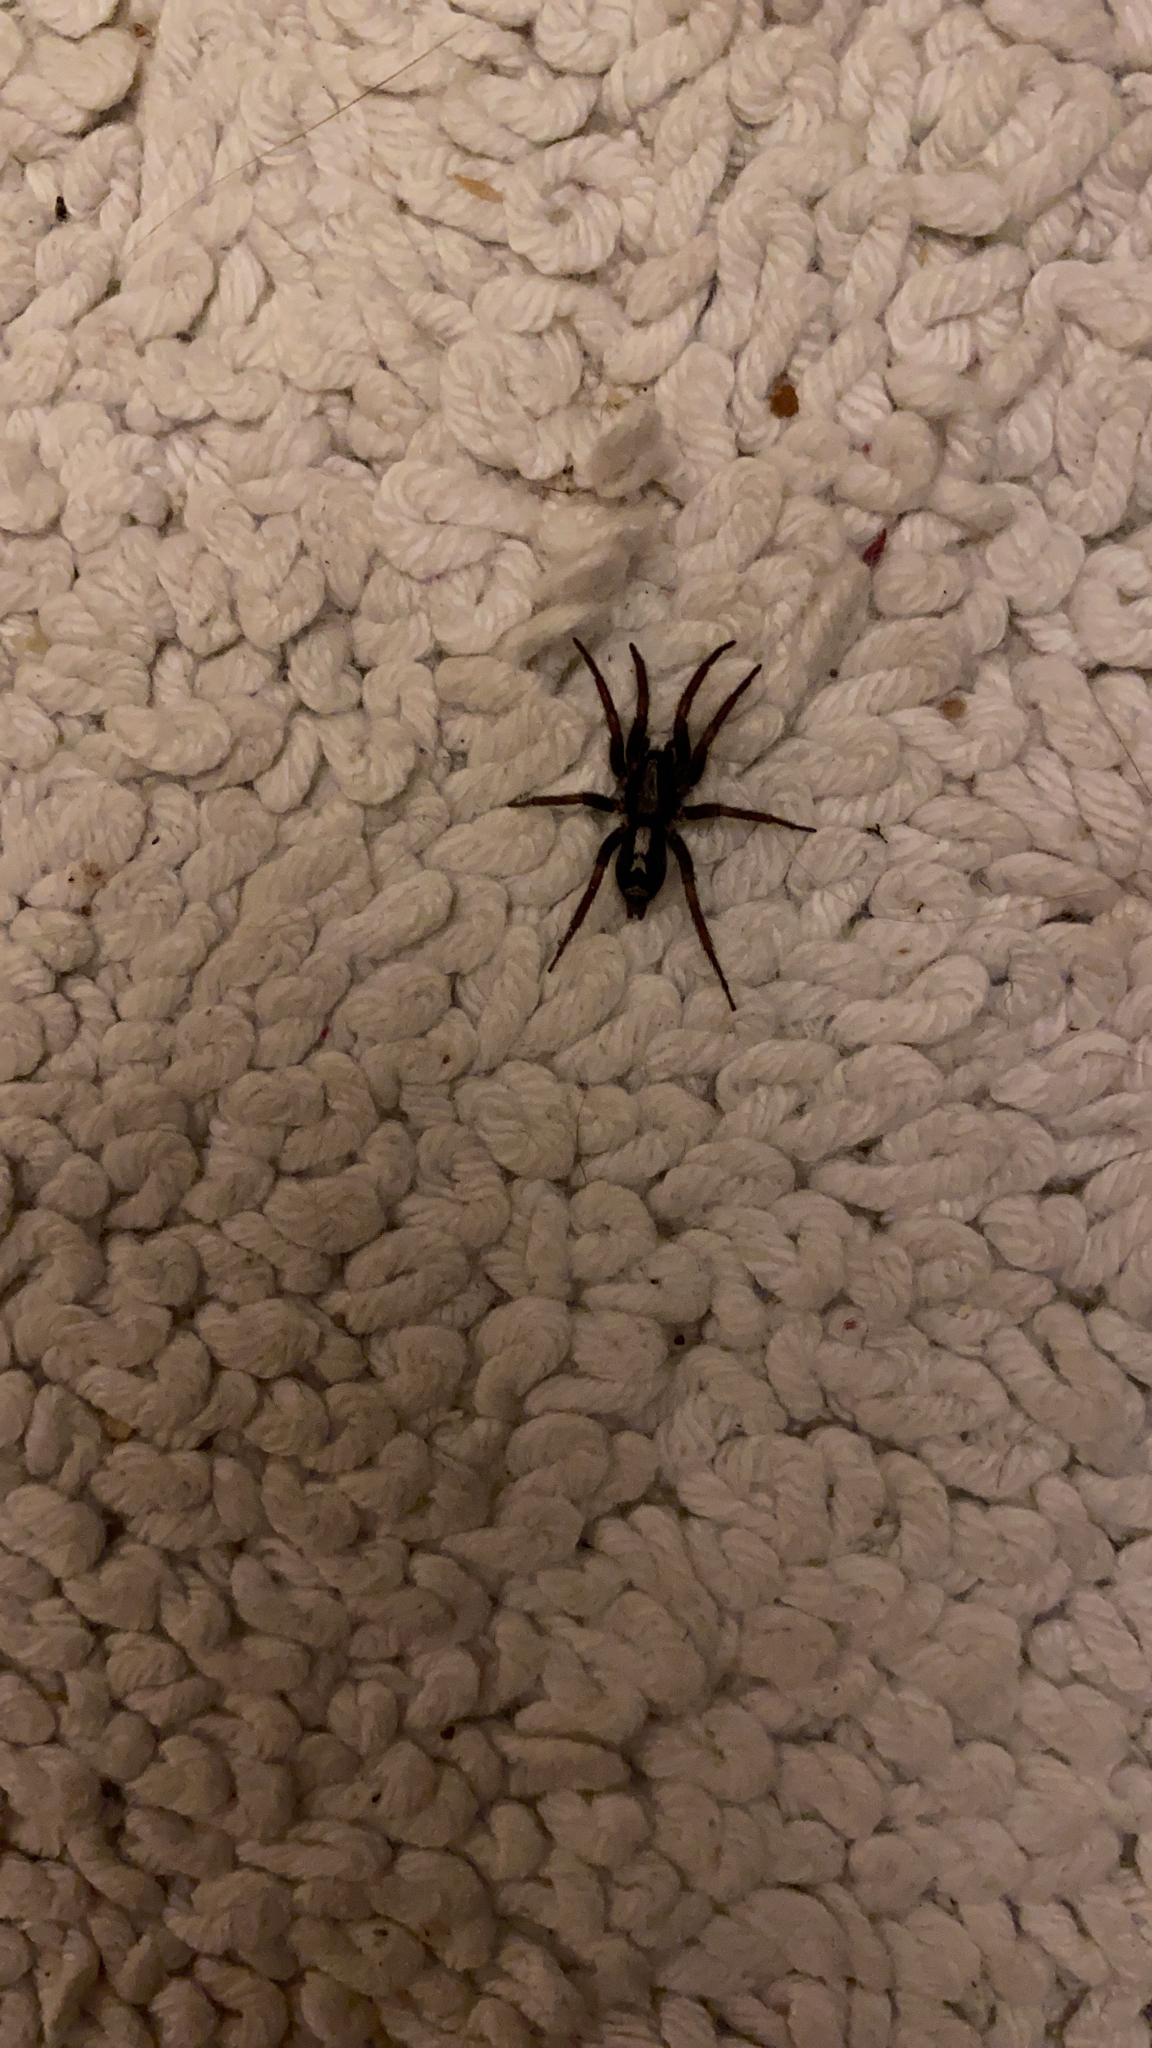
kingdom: Animalia
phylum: Arthropoda
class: Arachnida
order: Araneae
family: Gnaphosidae
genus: Herpyllus
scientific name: Herpyllus ecclesiasticus
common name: Eastern parson spider
